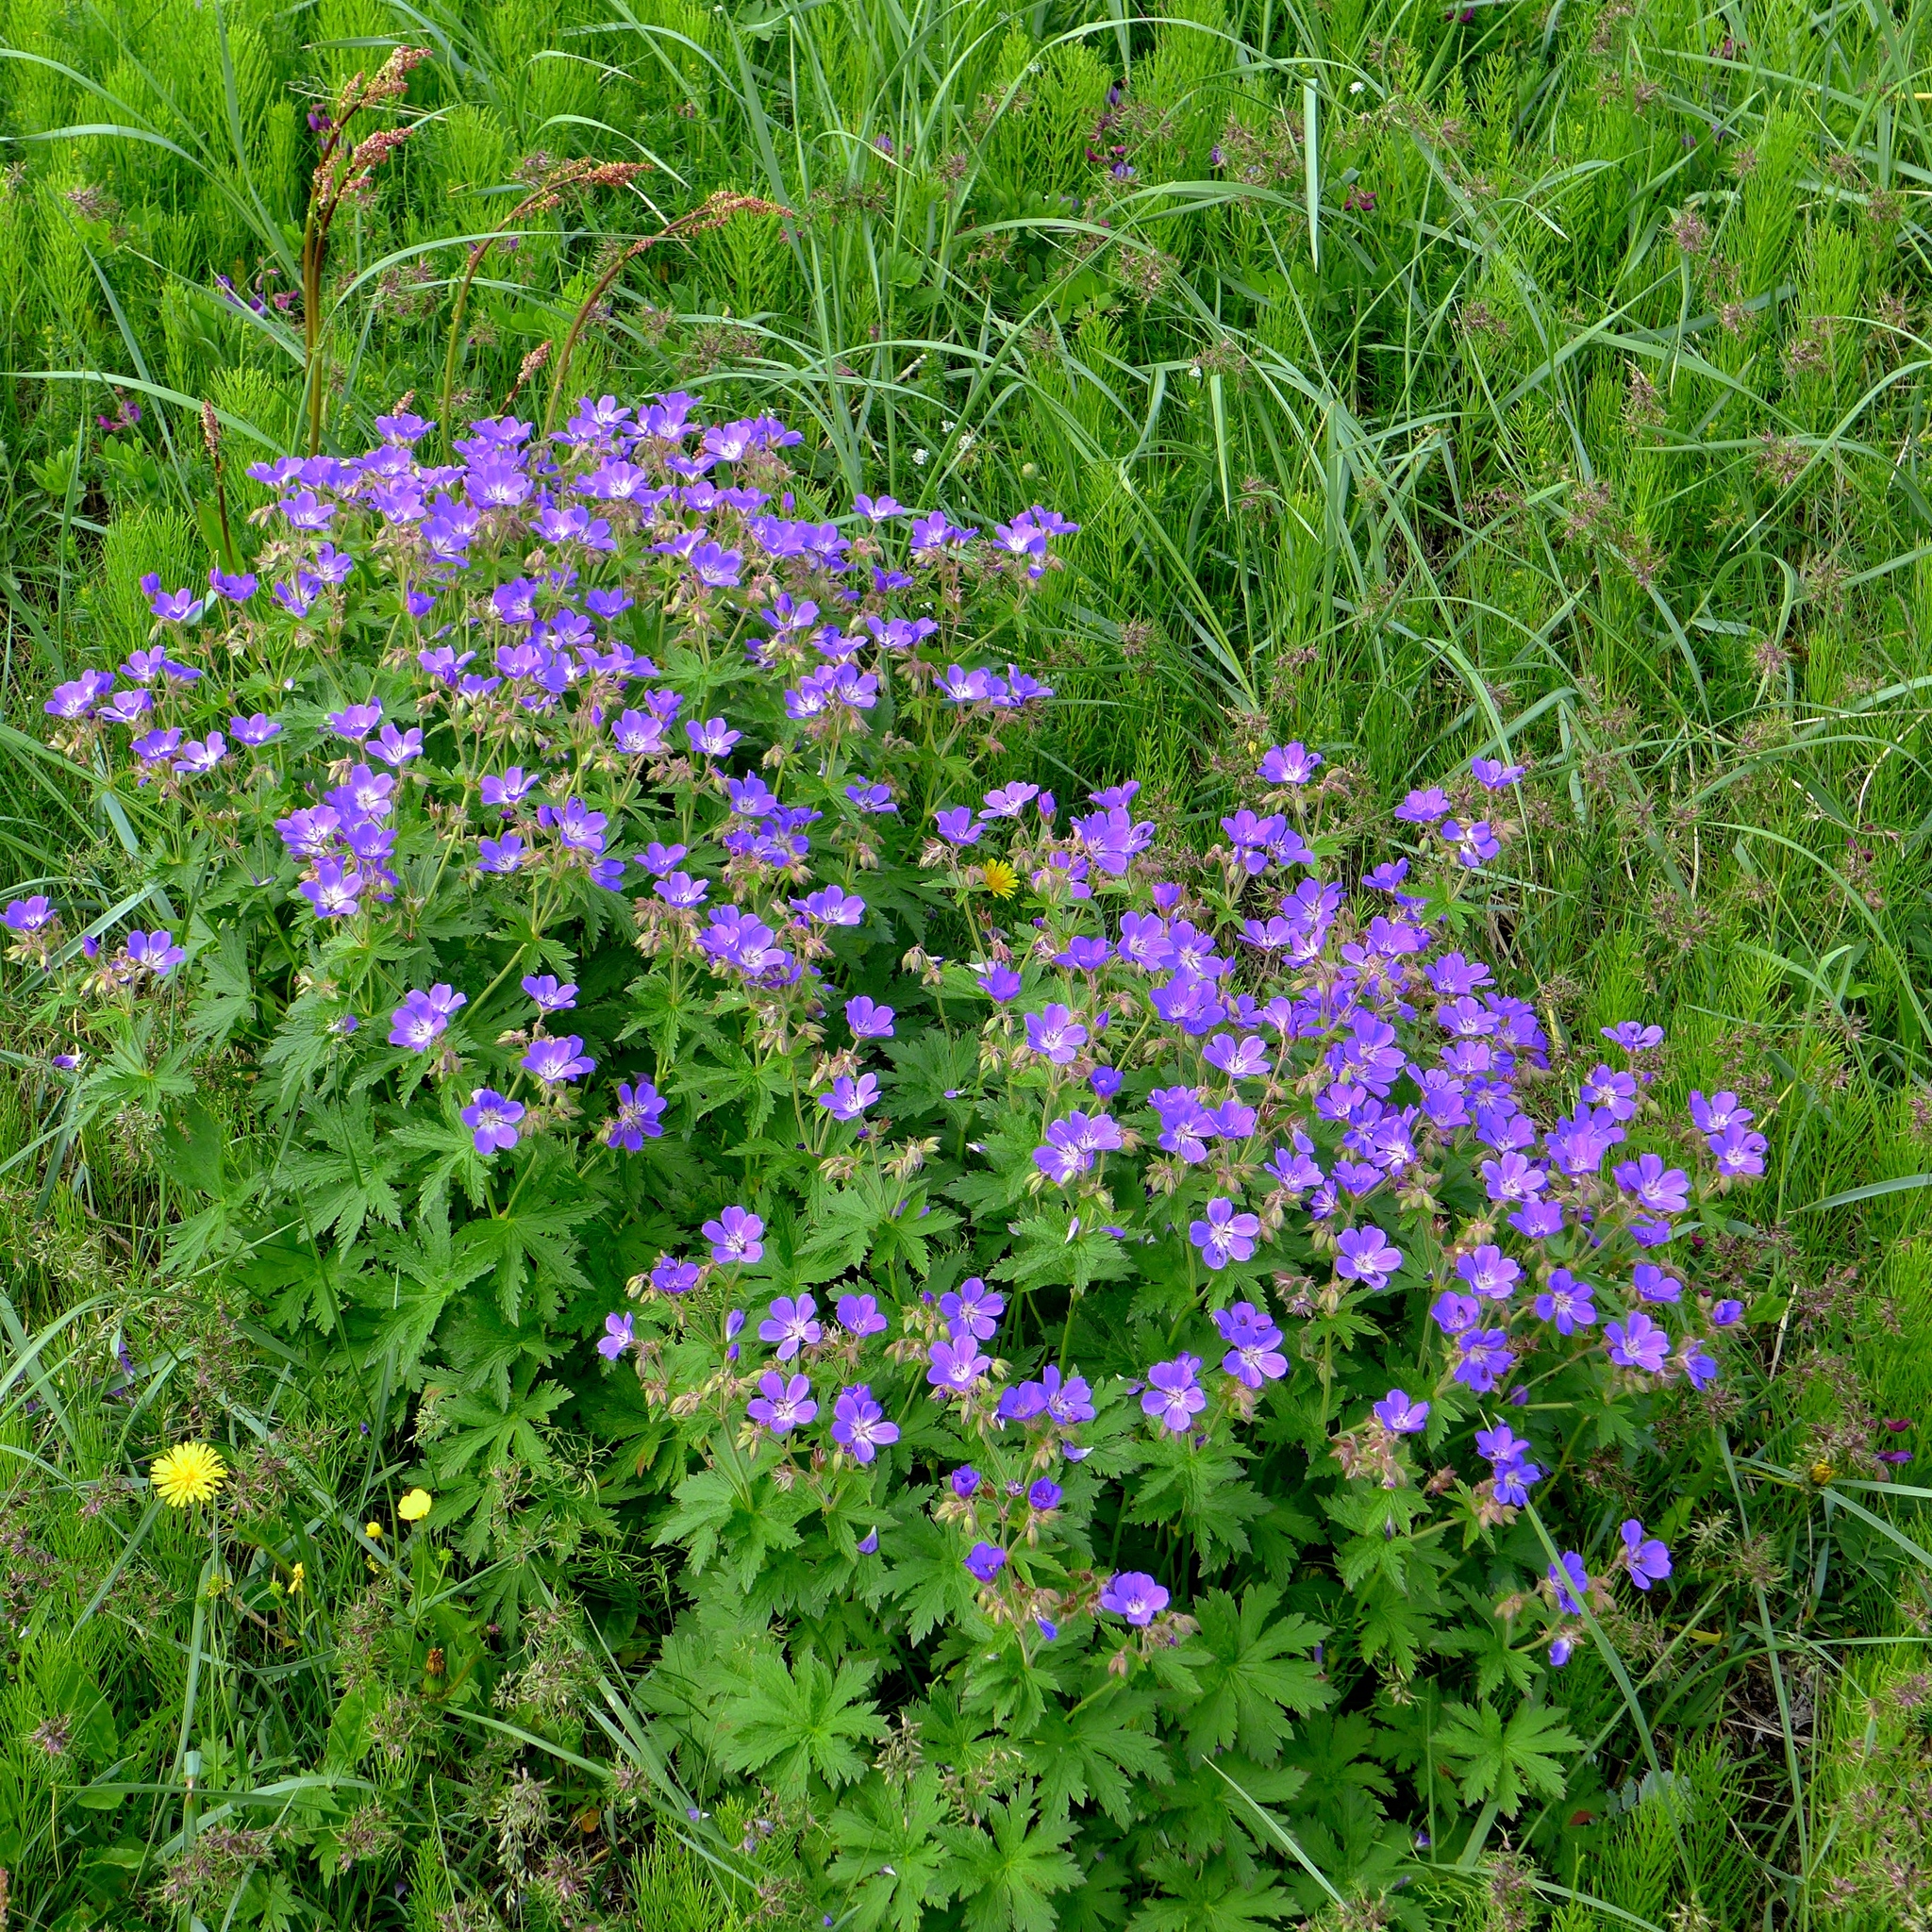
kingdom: Plantae
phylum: Tracheophyta
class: Magnoliopsida
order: Geraniales
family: Geraniaceae
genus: Geranium
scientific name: Geranium sylvaticum
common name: Wood crane's-bill
